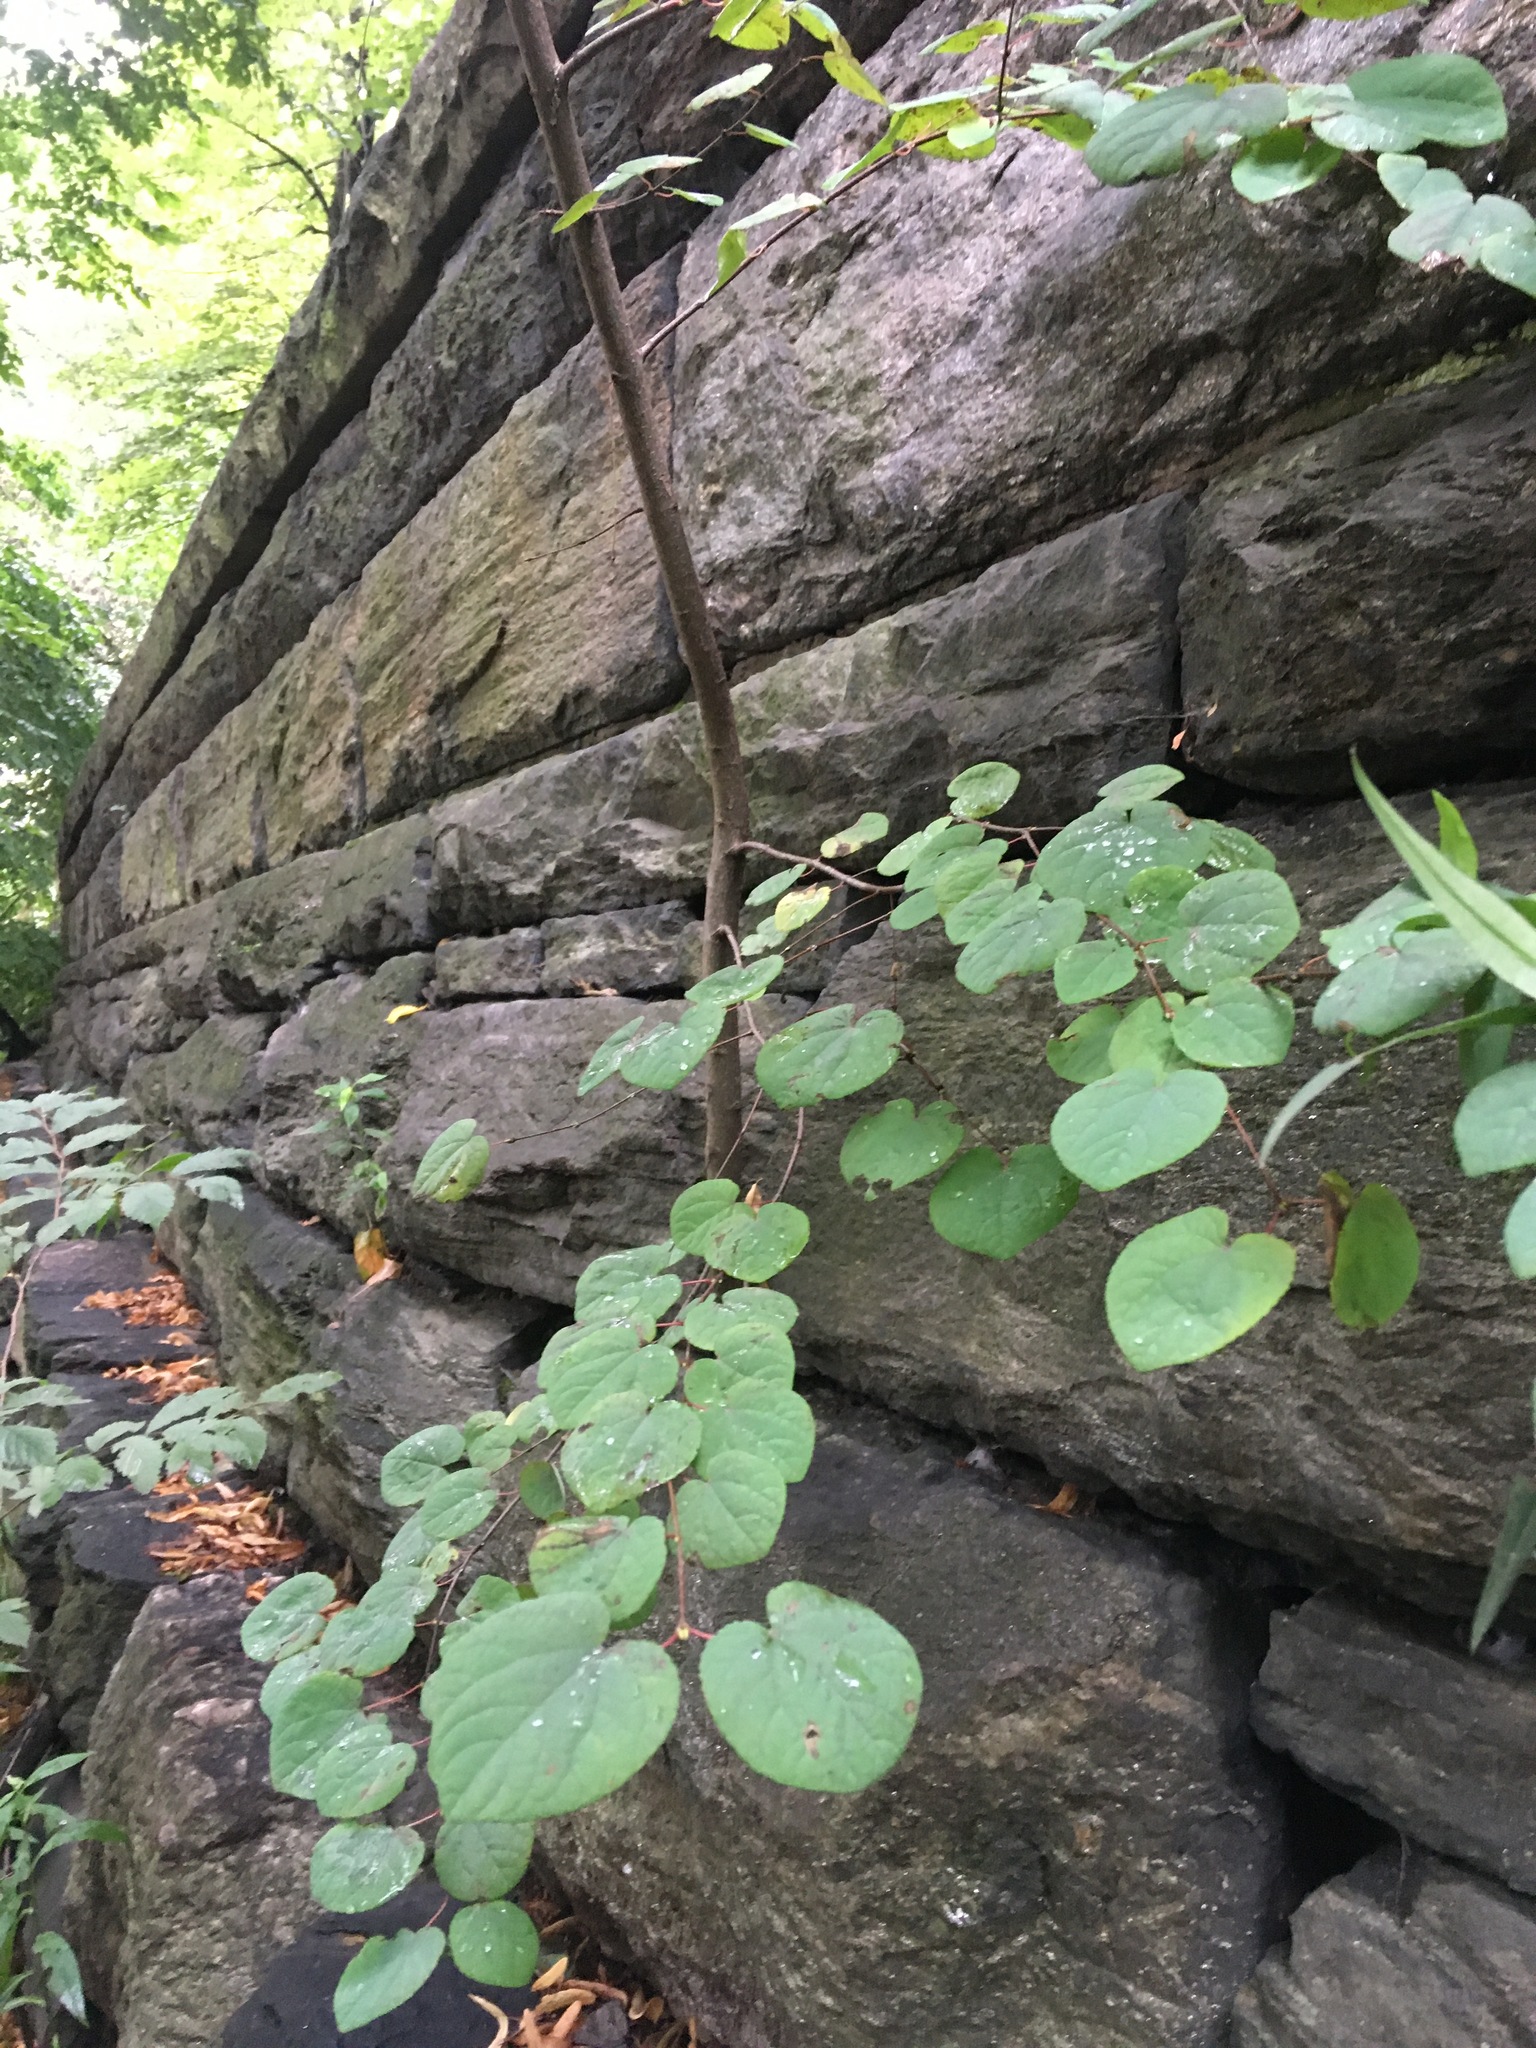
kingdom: Plantae
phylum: Tracheophyta
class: Magnoliopsida
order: Saxifragales
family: Cercidiphyllaceae
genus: Cercidiphyllum
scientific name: Cercidiphyllum japonicum
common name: Katsura tree
